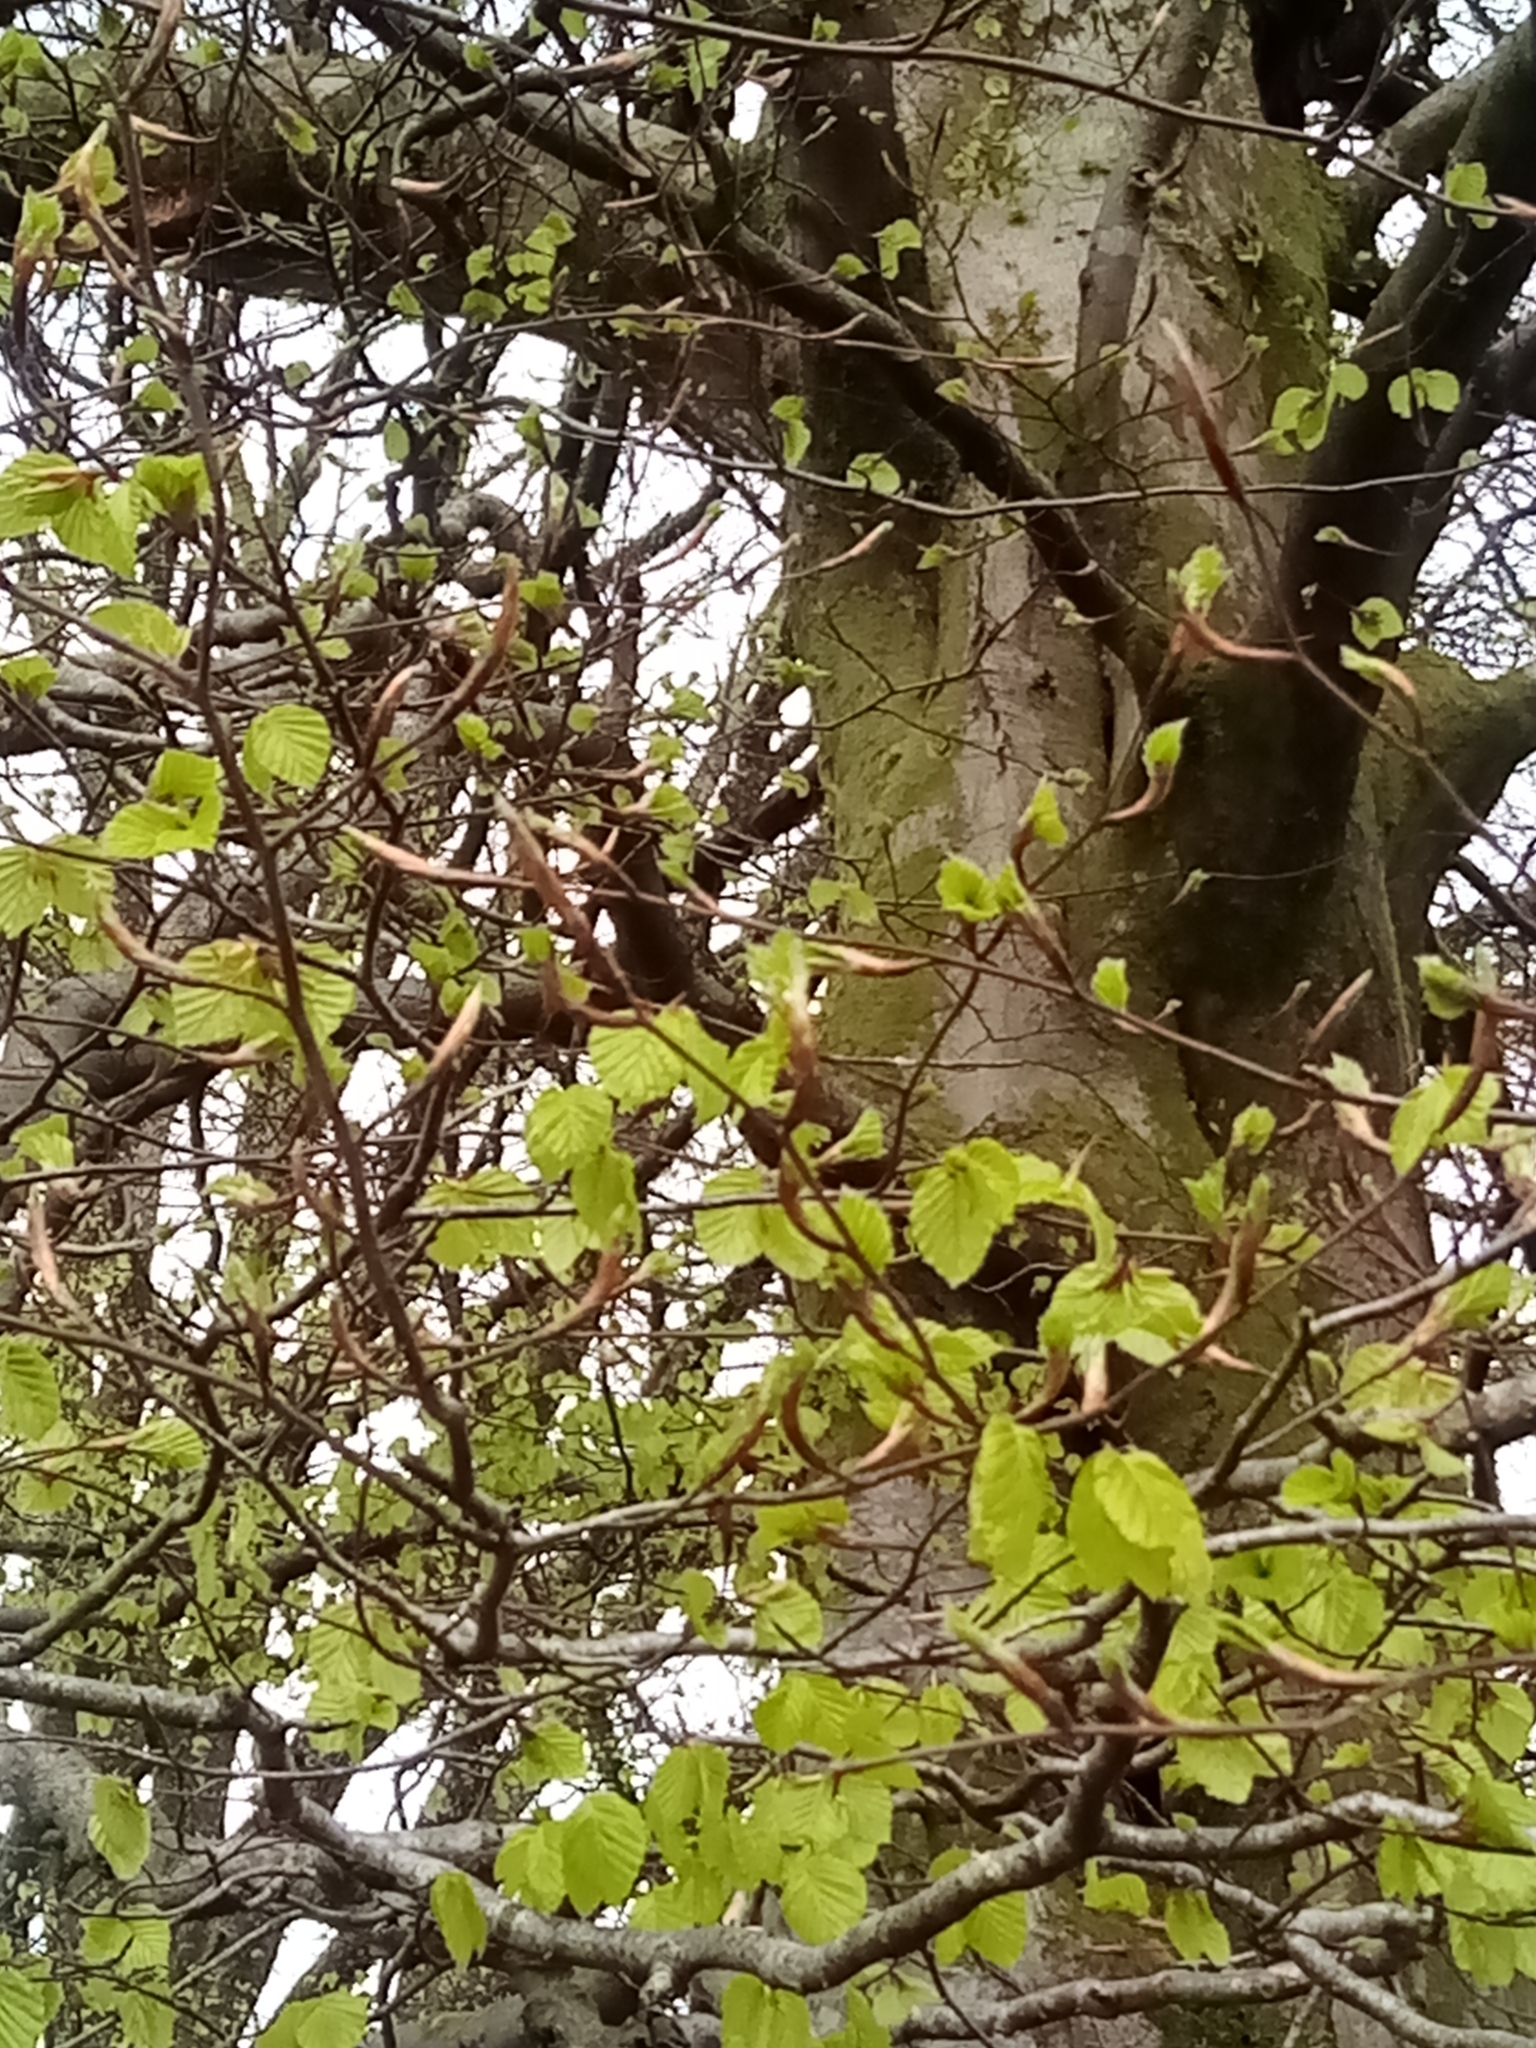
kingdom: Plantae
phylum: Tracheophyta
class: Magnoliopsida
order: Fagales
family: Fagaceae
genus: Fagus
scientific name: Fagus sylvatica
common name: Beech
